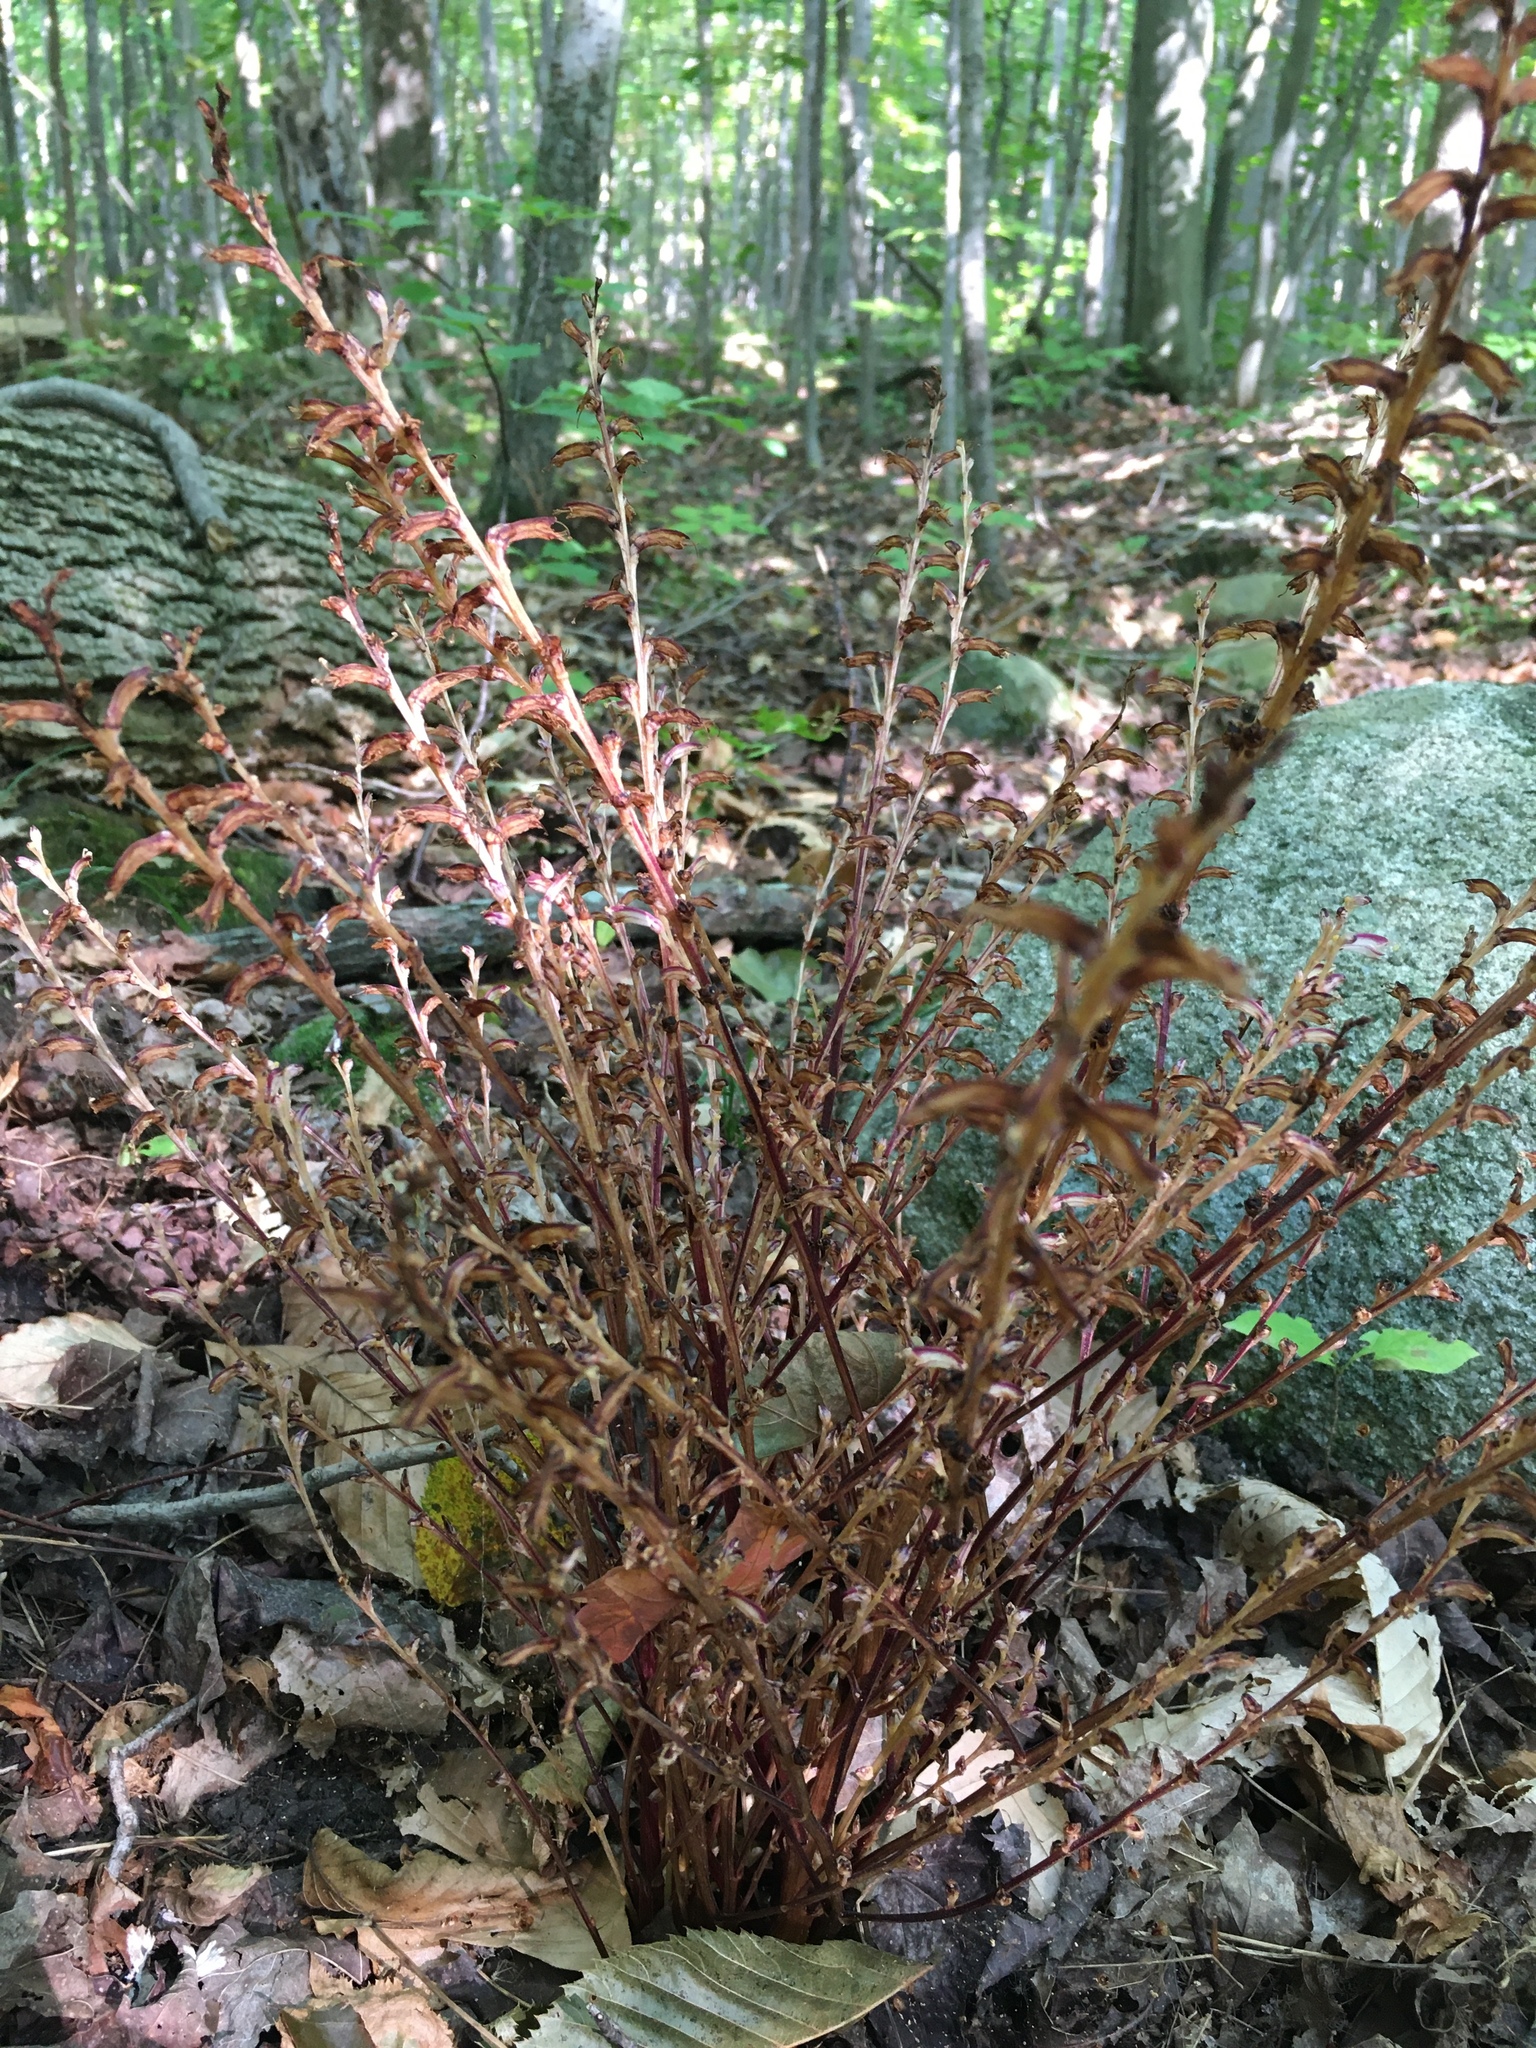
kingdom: Plantae
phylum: Tracheophyta
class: Magnoliopsida
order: Lamiales
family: Orobanchaceae
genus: Epifagus
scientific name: Epifagus virginiana
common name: Beechdrops
